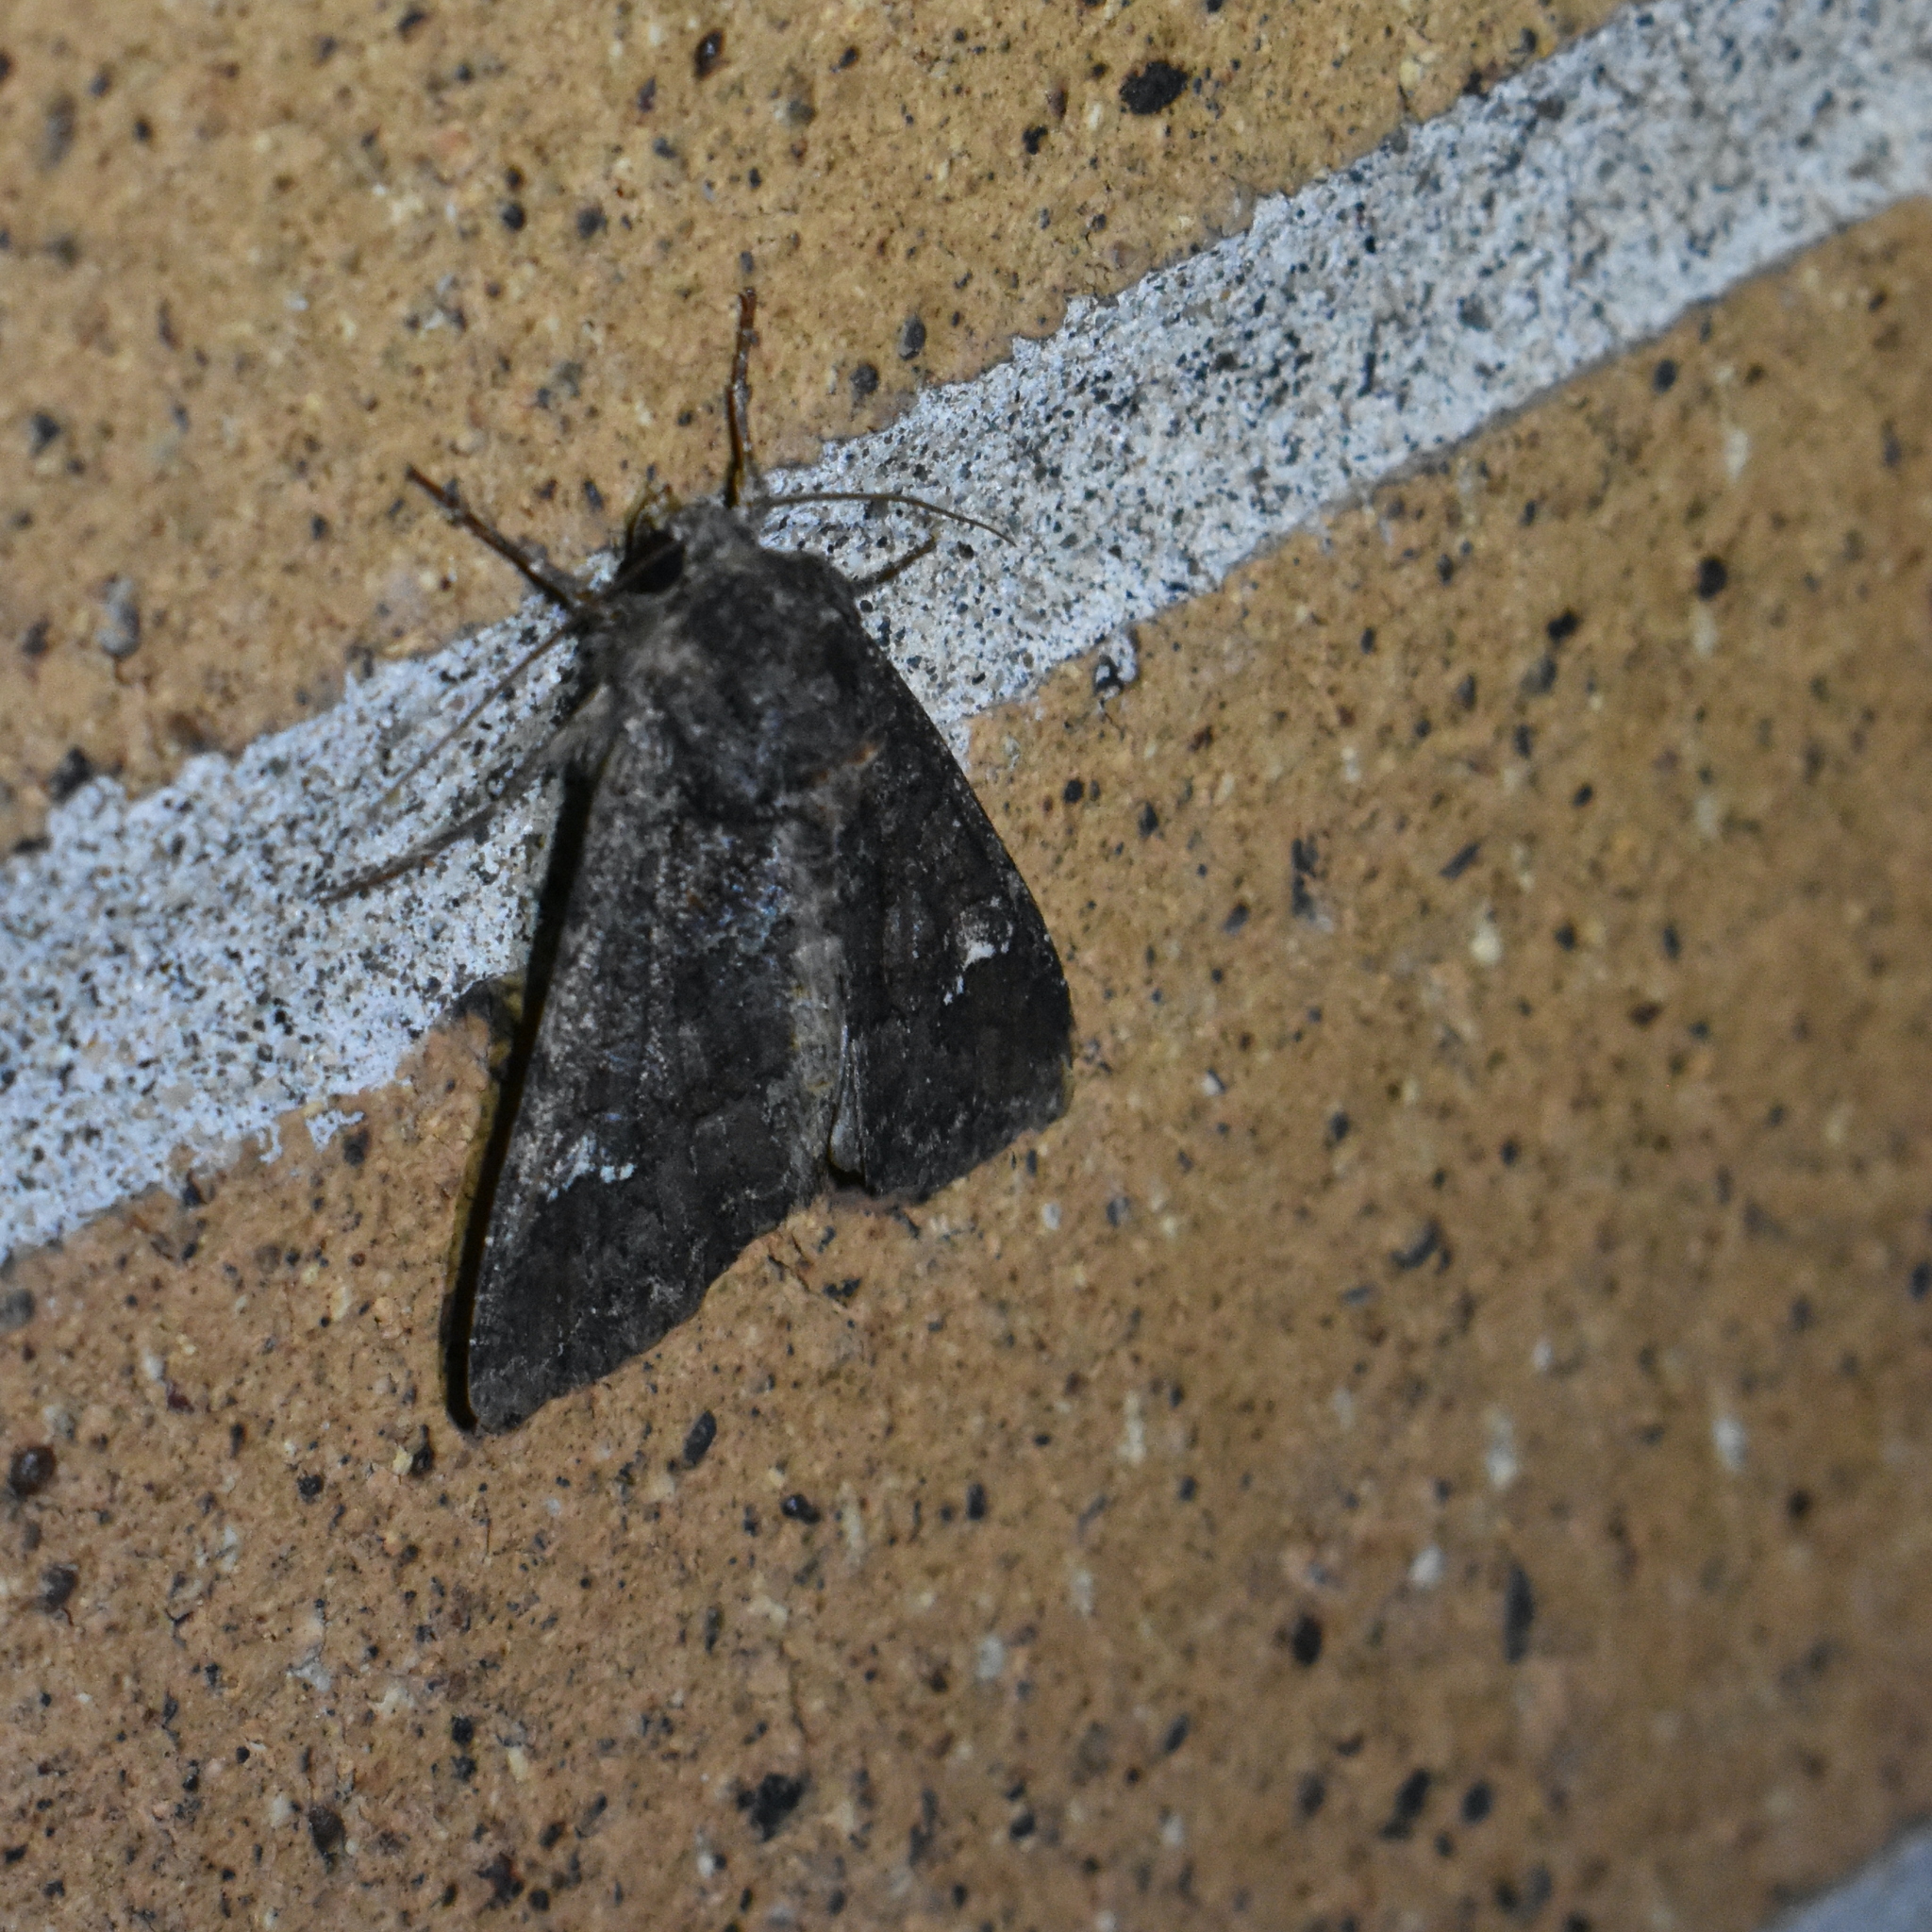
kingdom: Animalia
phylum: Arthropoda
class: Insecta
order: Lepidoptera
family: Noctuidae
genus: Apamea
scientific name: Apamea amputatrix
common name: Yellow-headed cutworm moth
